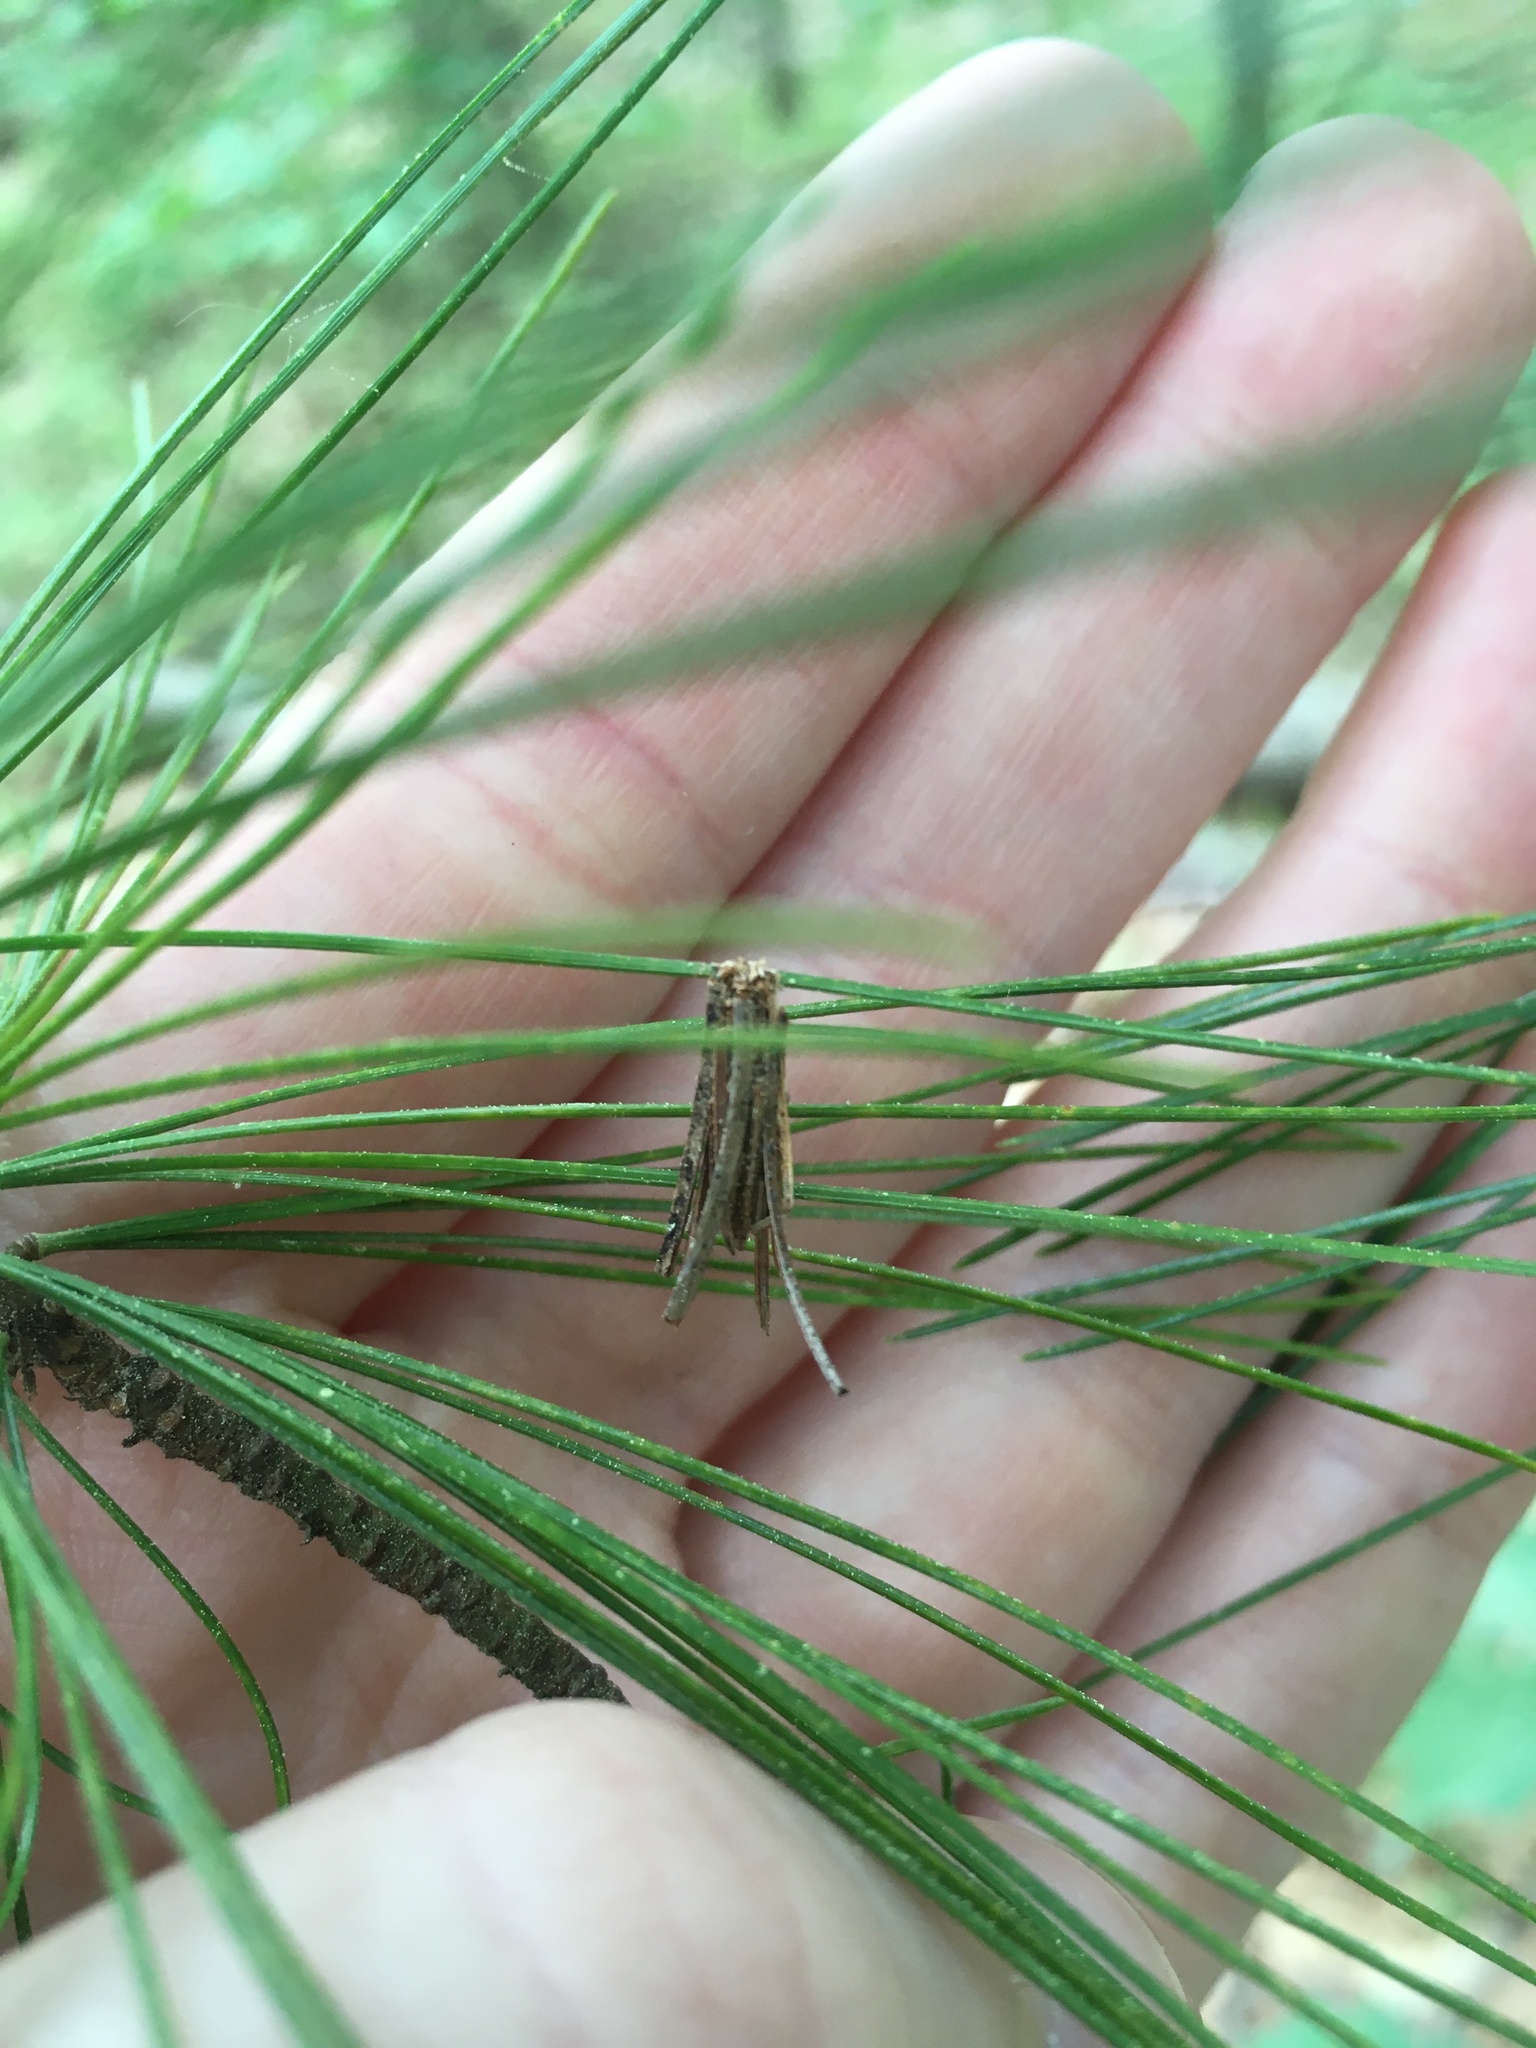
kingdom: Animalia
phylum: Arthropoda
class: Insecta
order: Lepidoptera
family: Psychidae
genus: Psyche
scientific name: Psyche casta
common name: Common sweep
